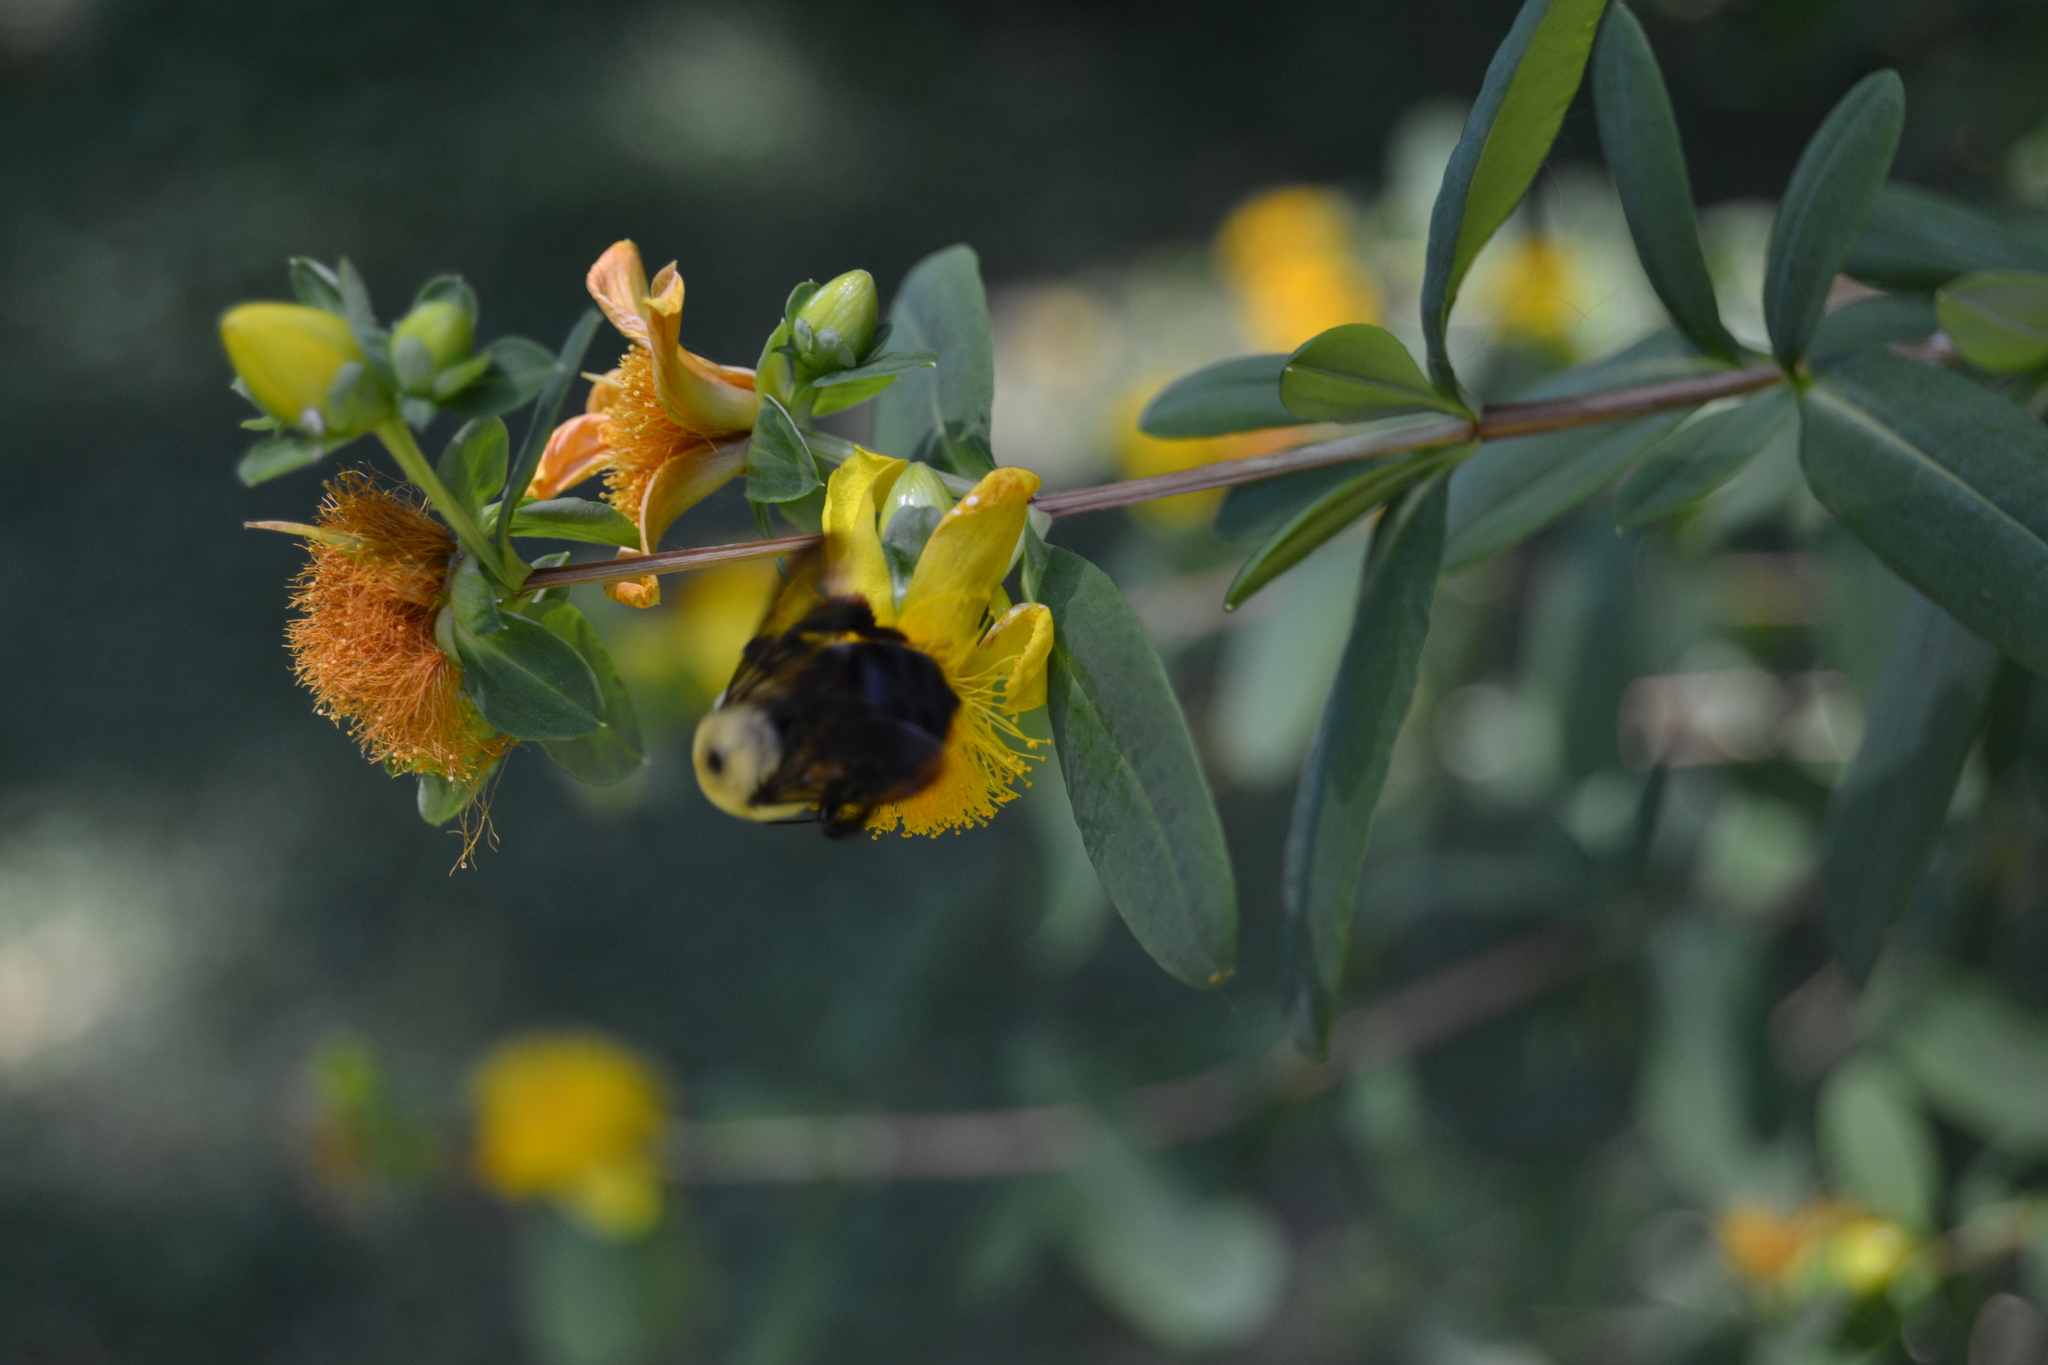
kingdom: Animalia
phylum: Arthropoda
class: Insecta
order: Hymenoptera
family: Apidae
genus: Bombus
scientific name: Bombus griseocollis
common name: Brown-belted bumble bee
